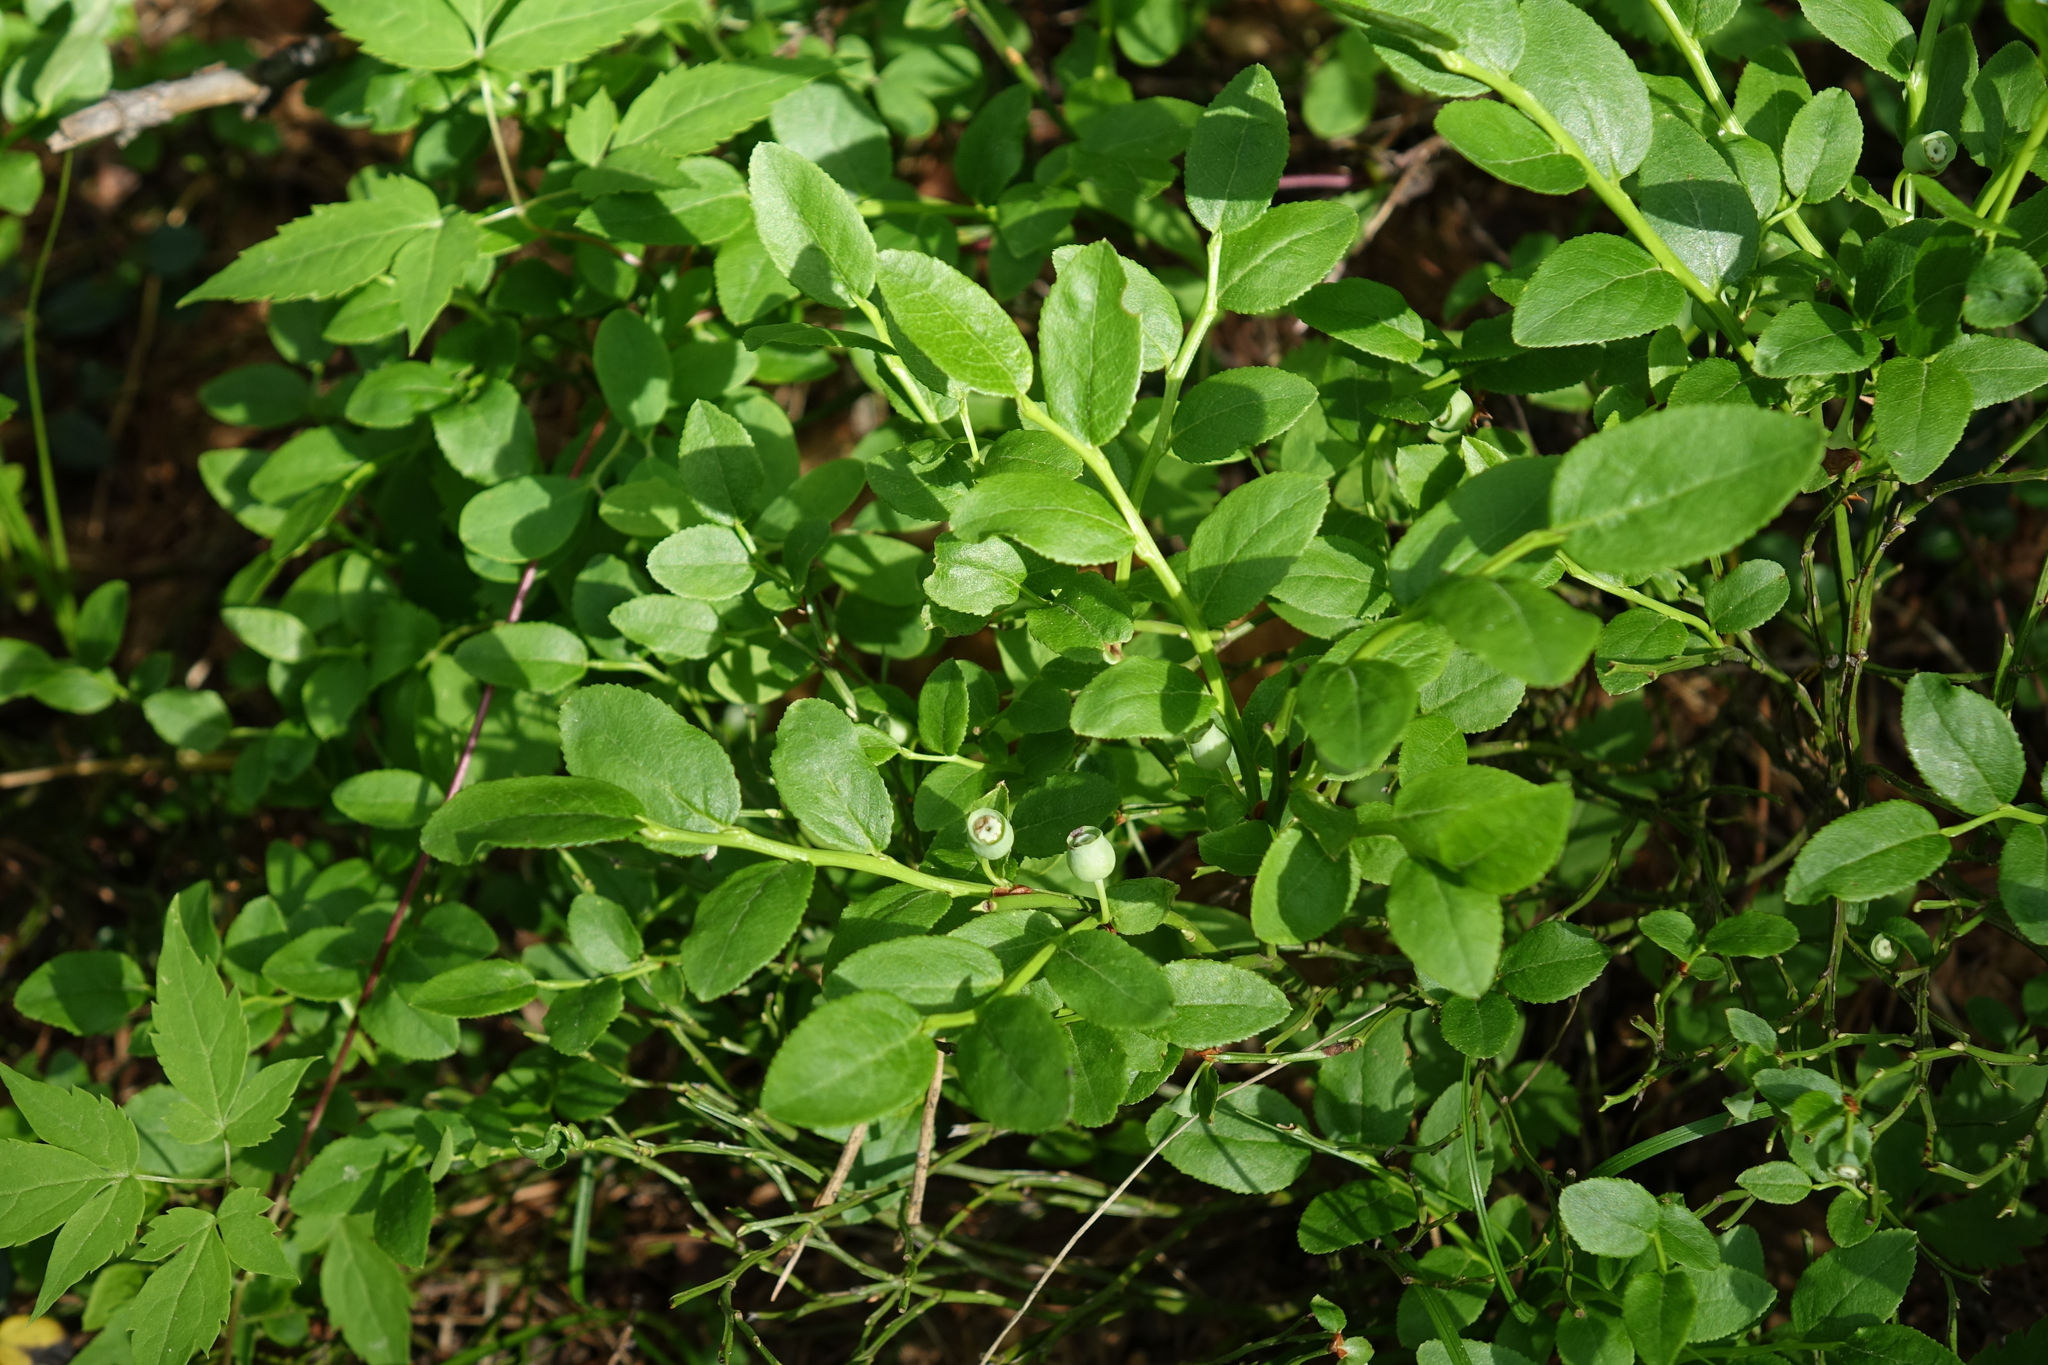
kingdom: Plantae
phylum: Tracheophyta
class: Magnoliopsida
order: Ericales
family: Ericaceae
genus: Vaccinium
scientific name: Vaccinium myrtillus
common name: Bilberry
